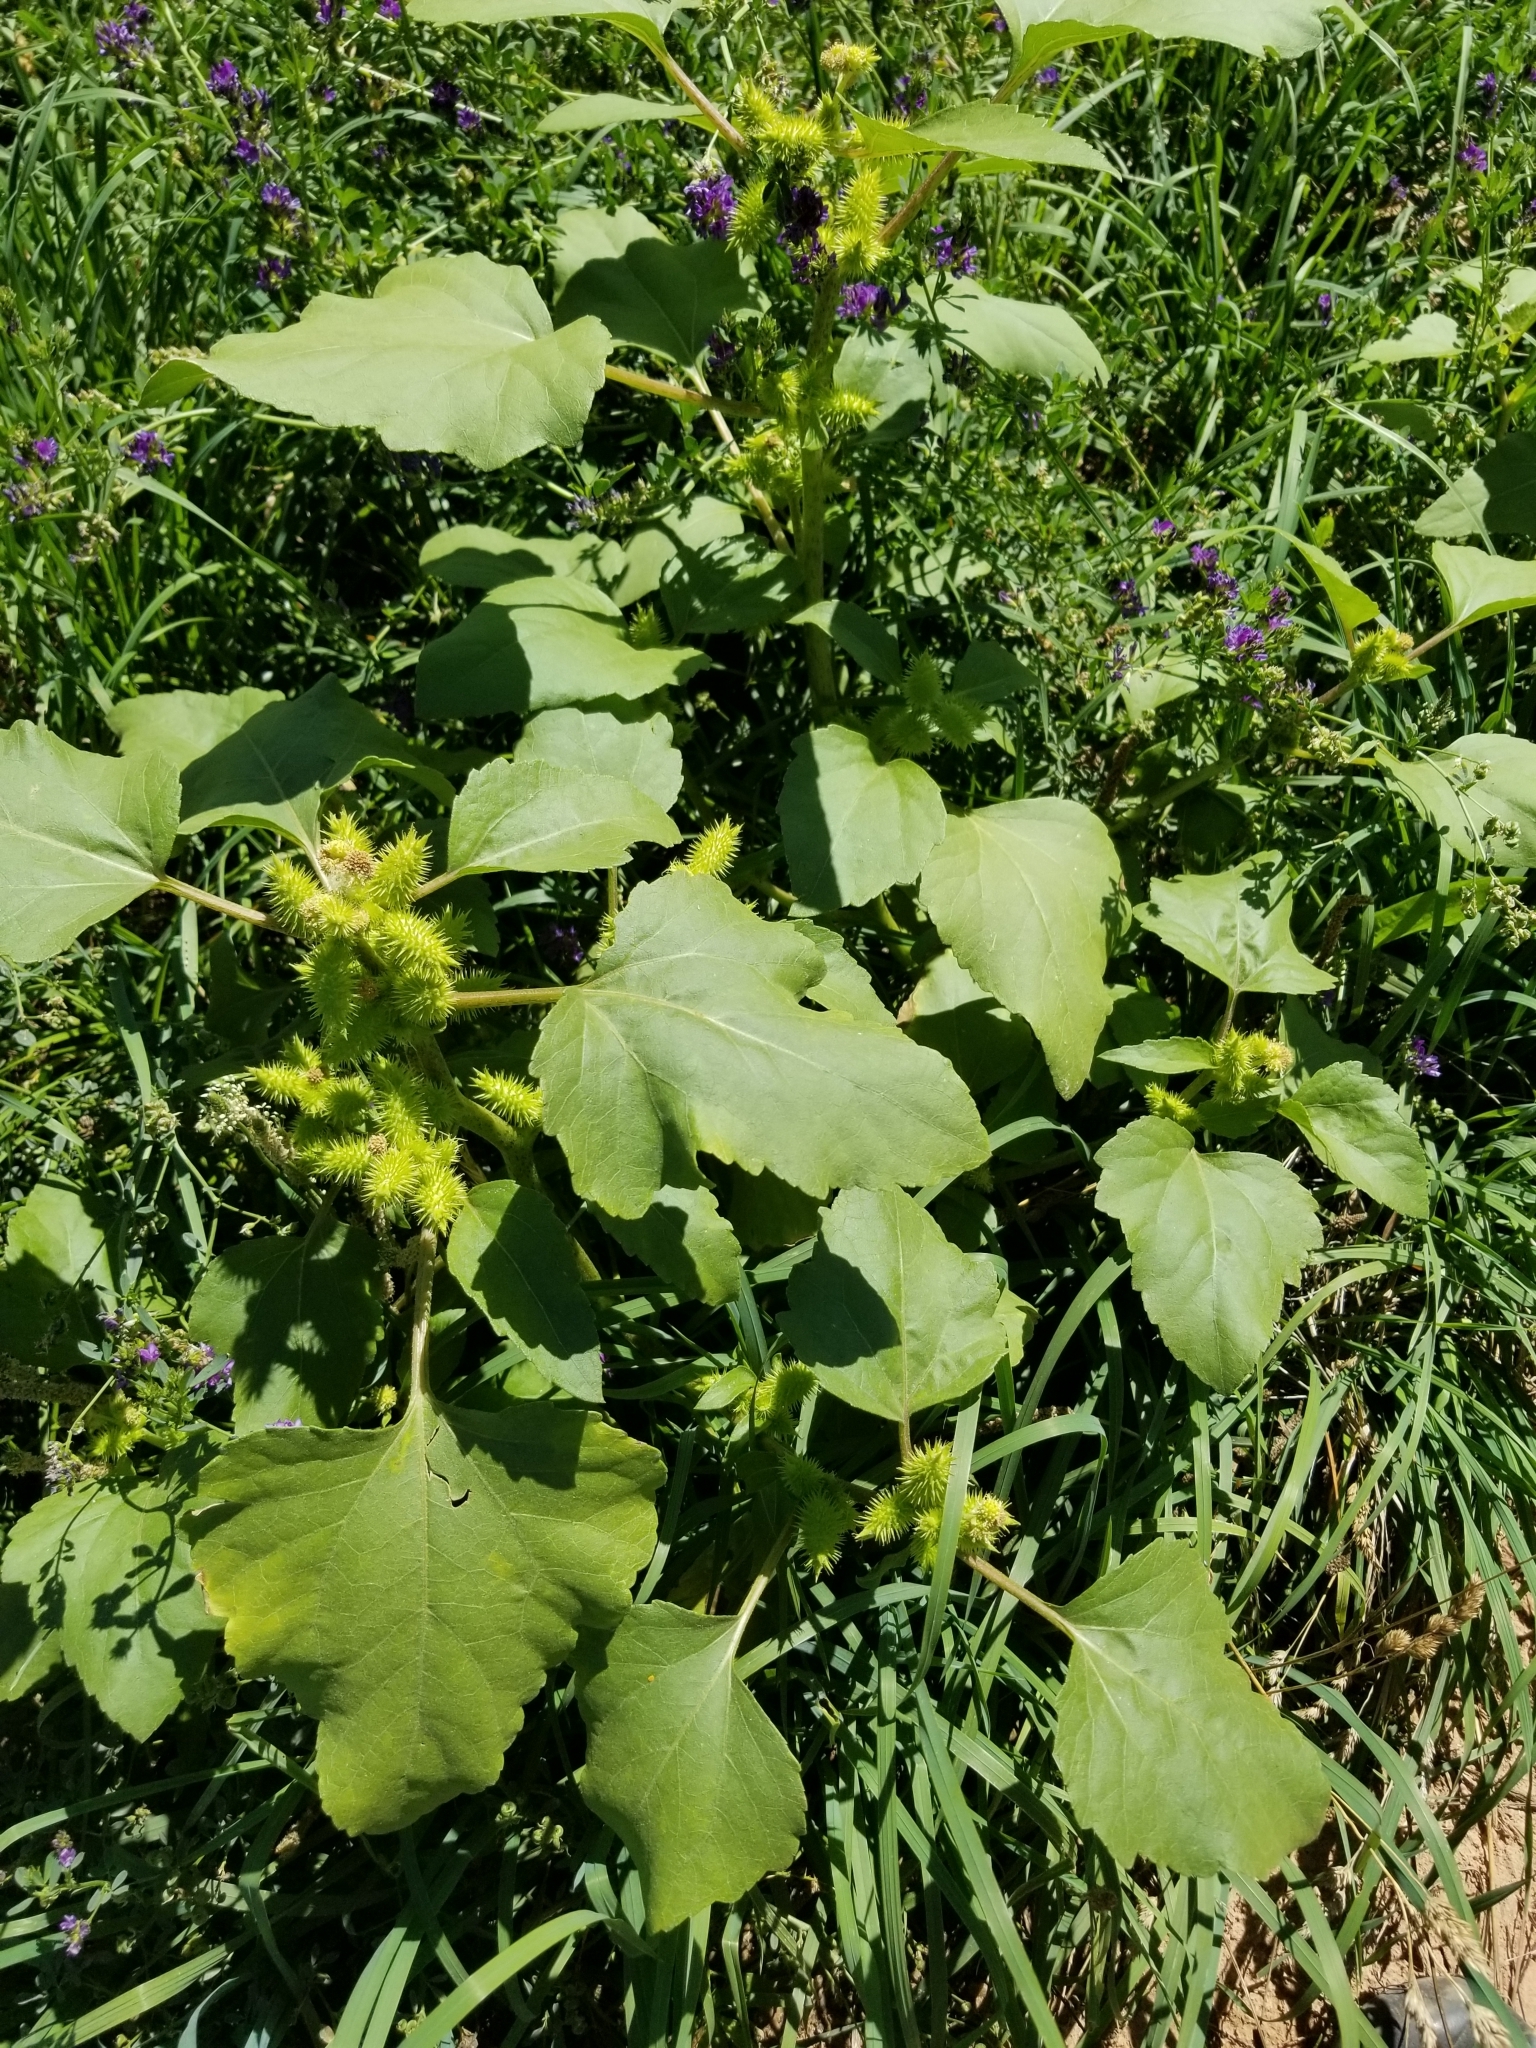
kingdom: Plantae
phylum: Tracheophyta
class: Magnoliopsida
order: Asterales
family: Asteraceae
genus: Xanthium
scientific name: Xanthium strumarium
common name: Rough cocklebur
